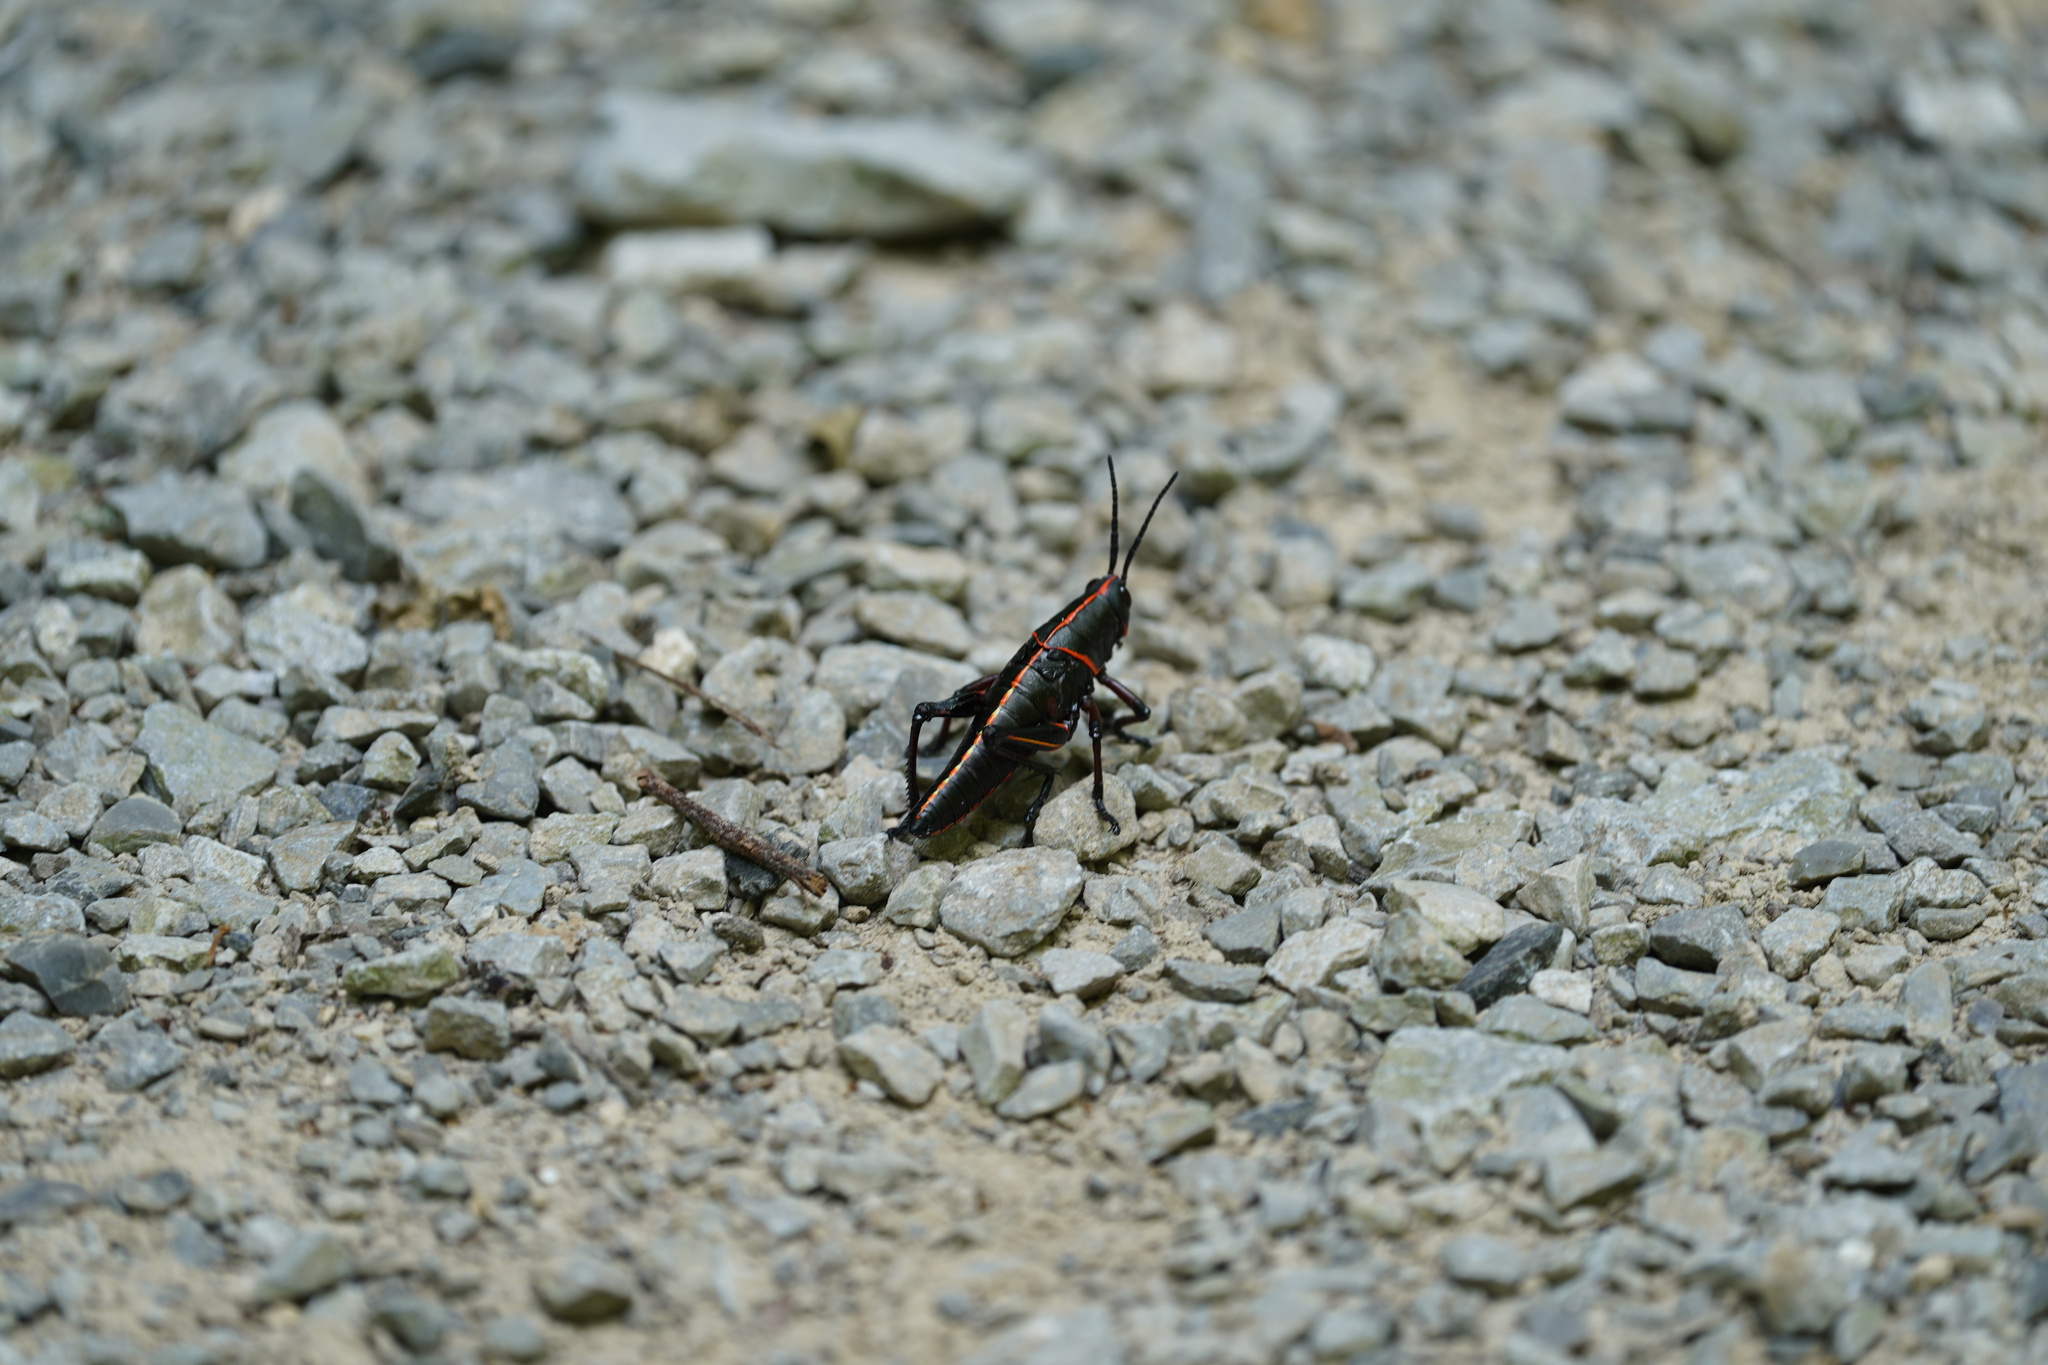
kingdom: Animalia
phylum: Arthropoda
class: Insecta
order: Orthoptera
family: Romaleidae
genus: Romalea
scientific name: Romalea microptera
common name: Eastern lubber grasshopper
